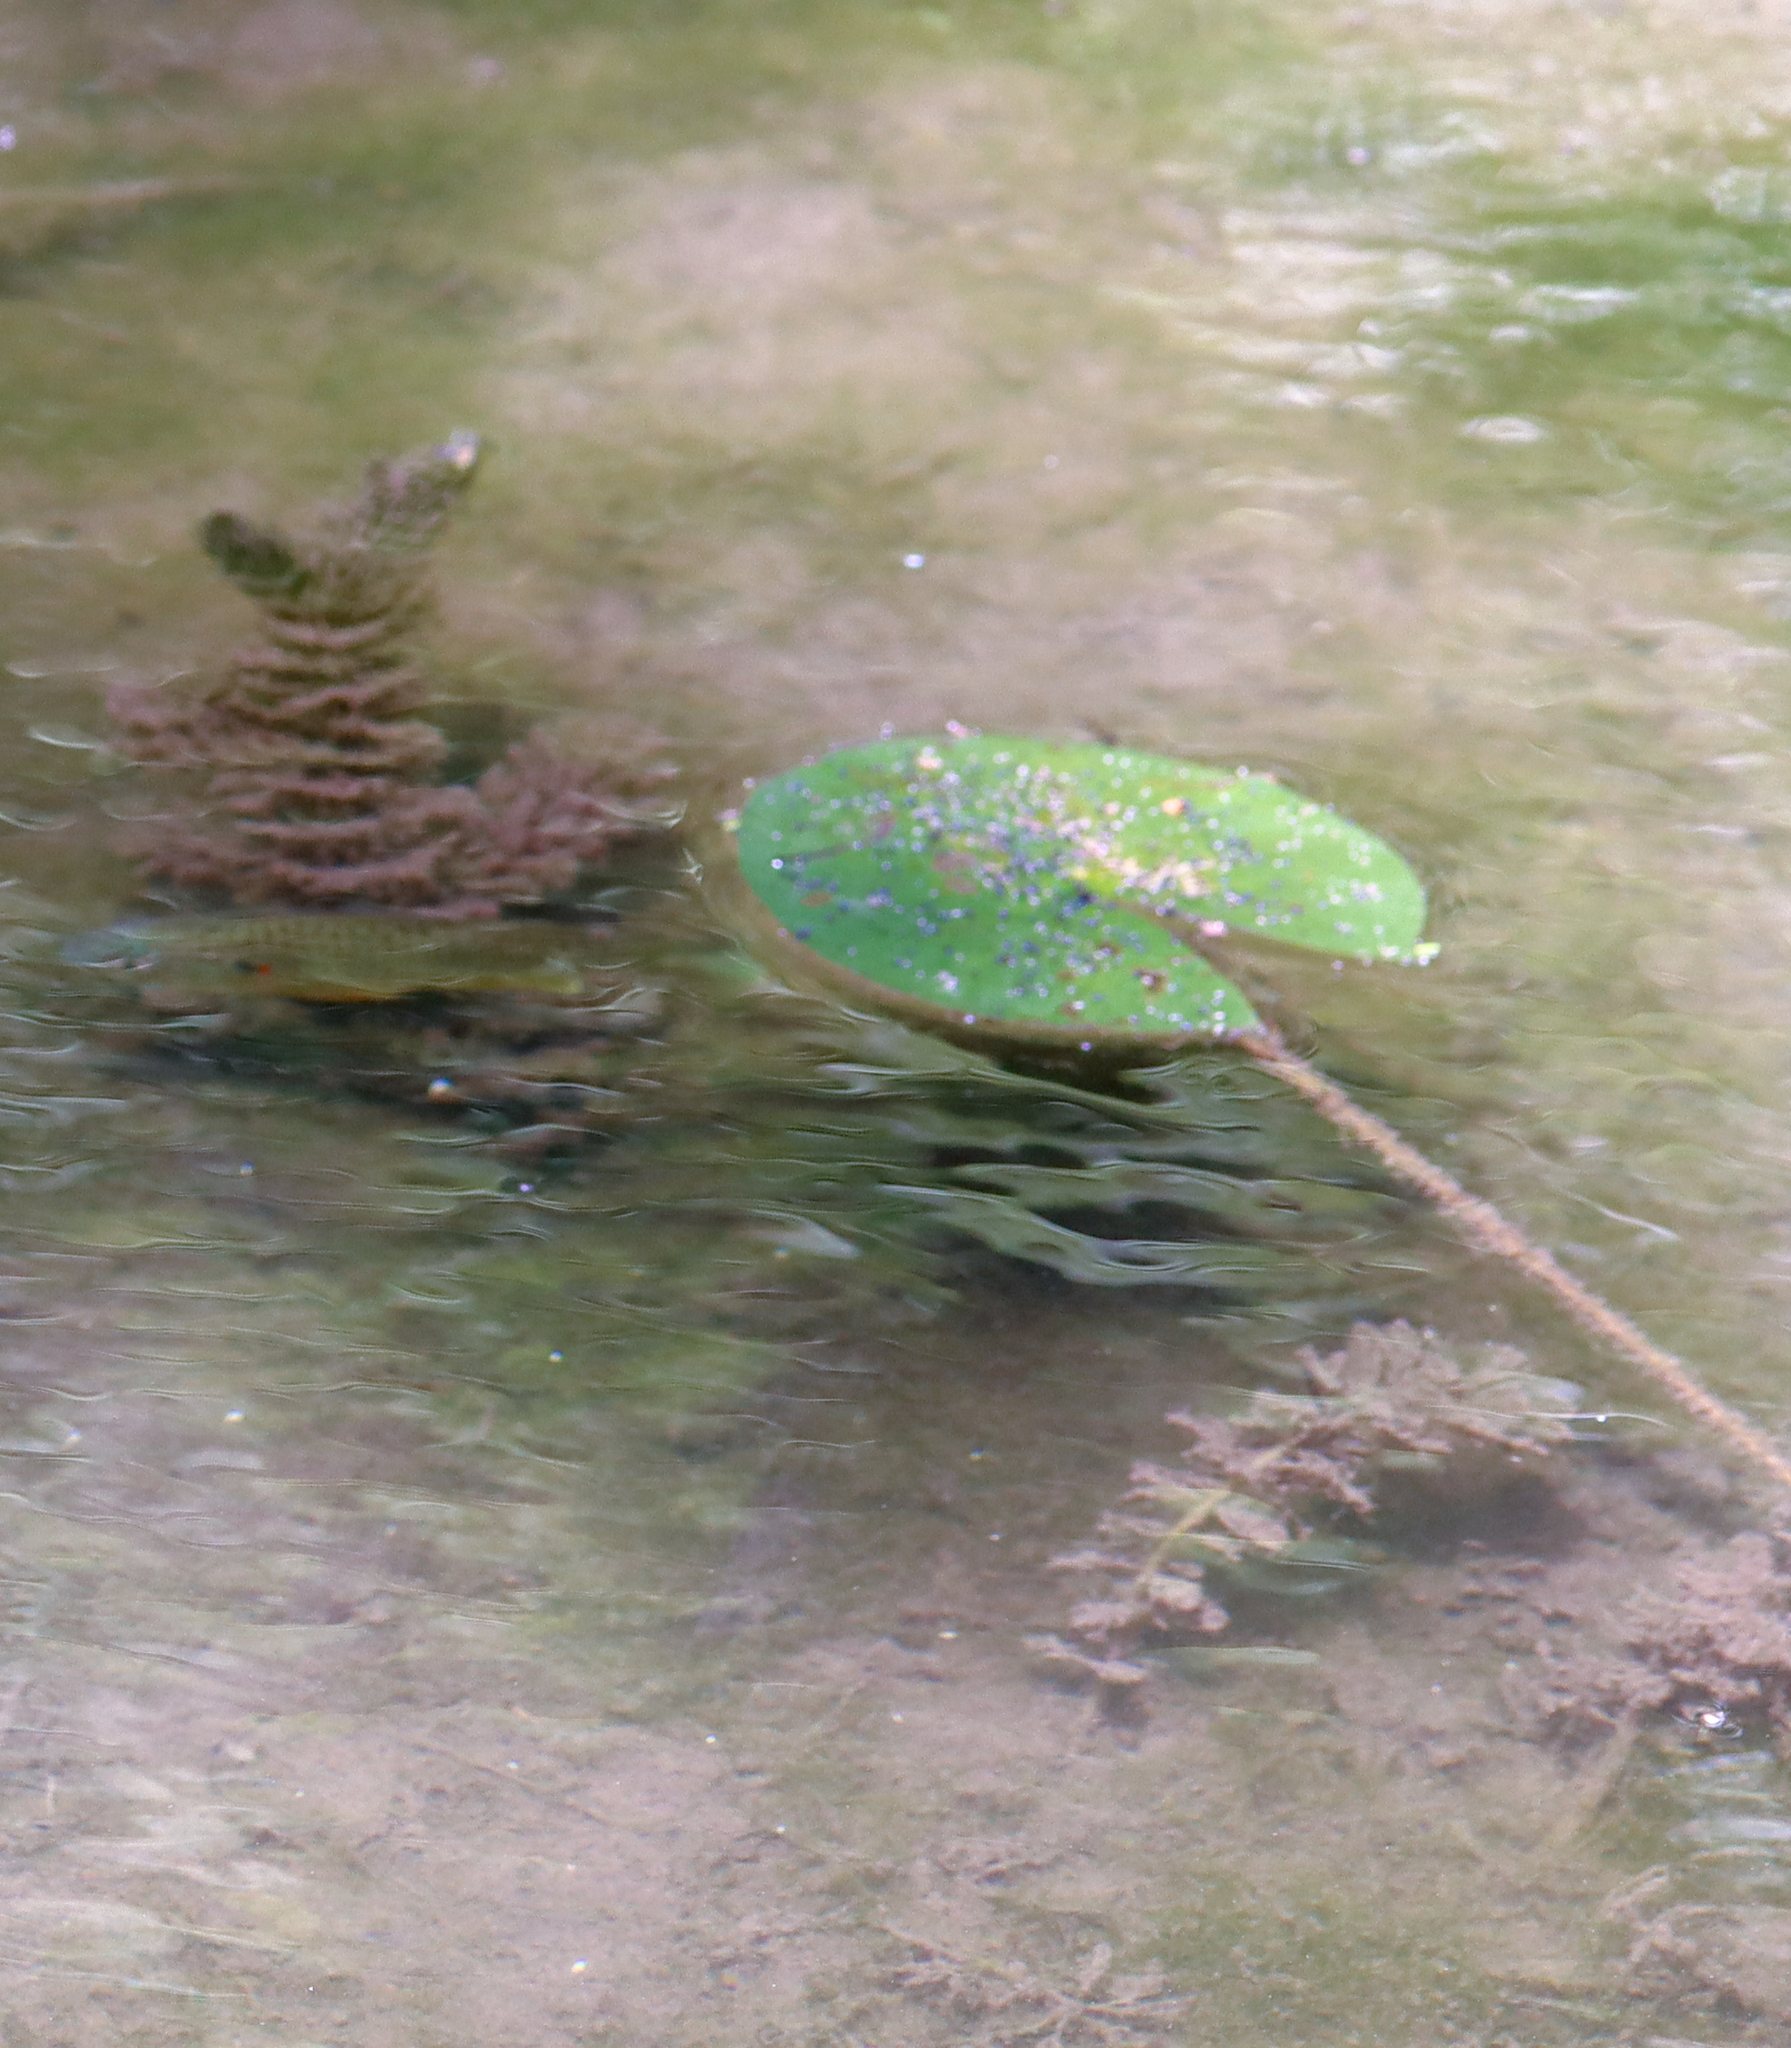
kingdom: Plantae
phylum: Tracheophyta
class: Magnoliopsida
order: Nymphaeales
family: Nymphaeaceae
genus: Nymphaea
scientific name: Nymphaea odorata
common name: Fragrant water-lily
